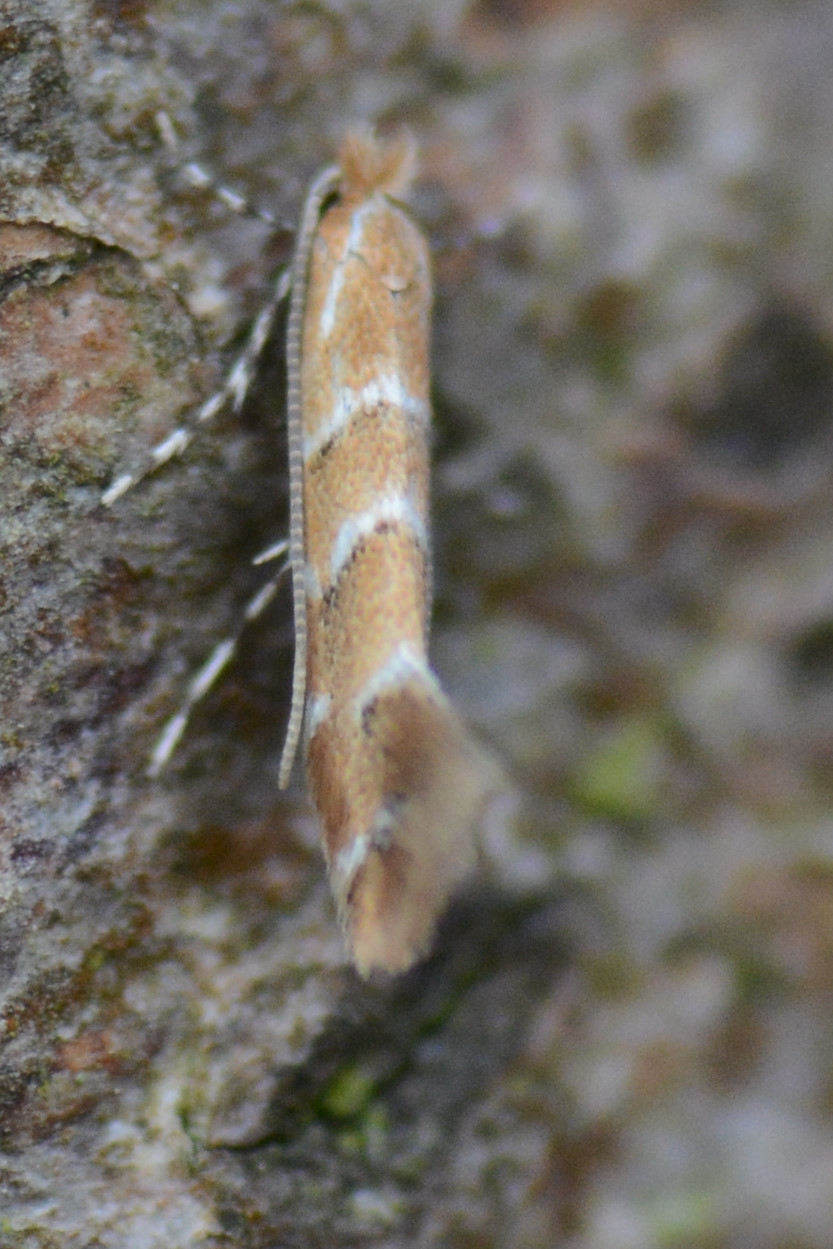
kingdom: Animalia
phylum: Arthropoda
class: Insecta
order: Lepidoptera
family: Gracillariidae
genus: Cameraria
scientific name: Cameraria ohridella
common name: Horse-chestnut leaf-miner
